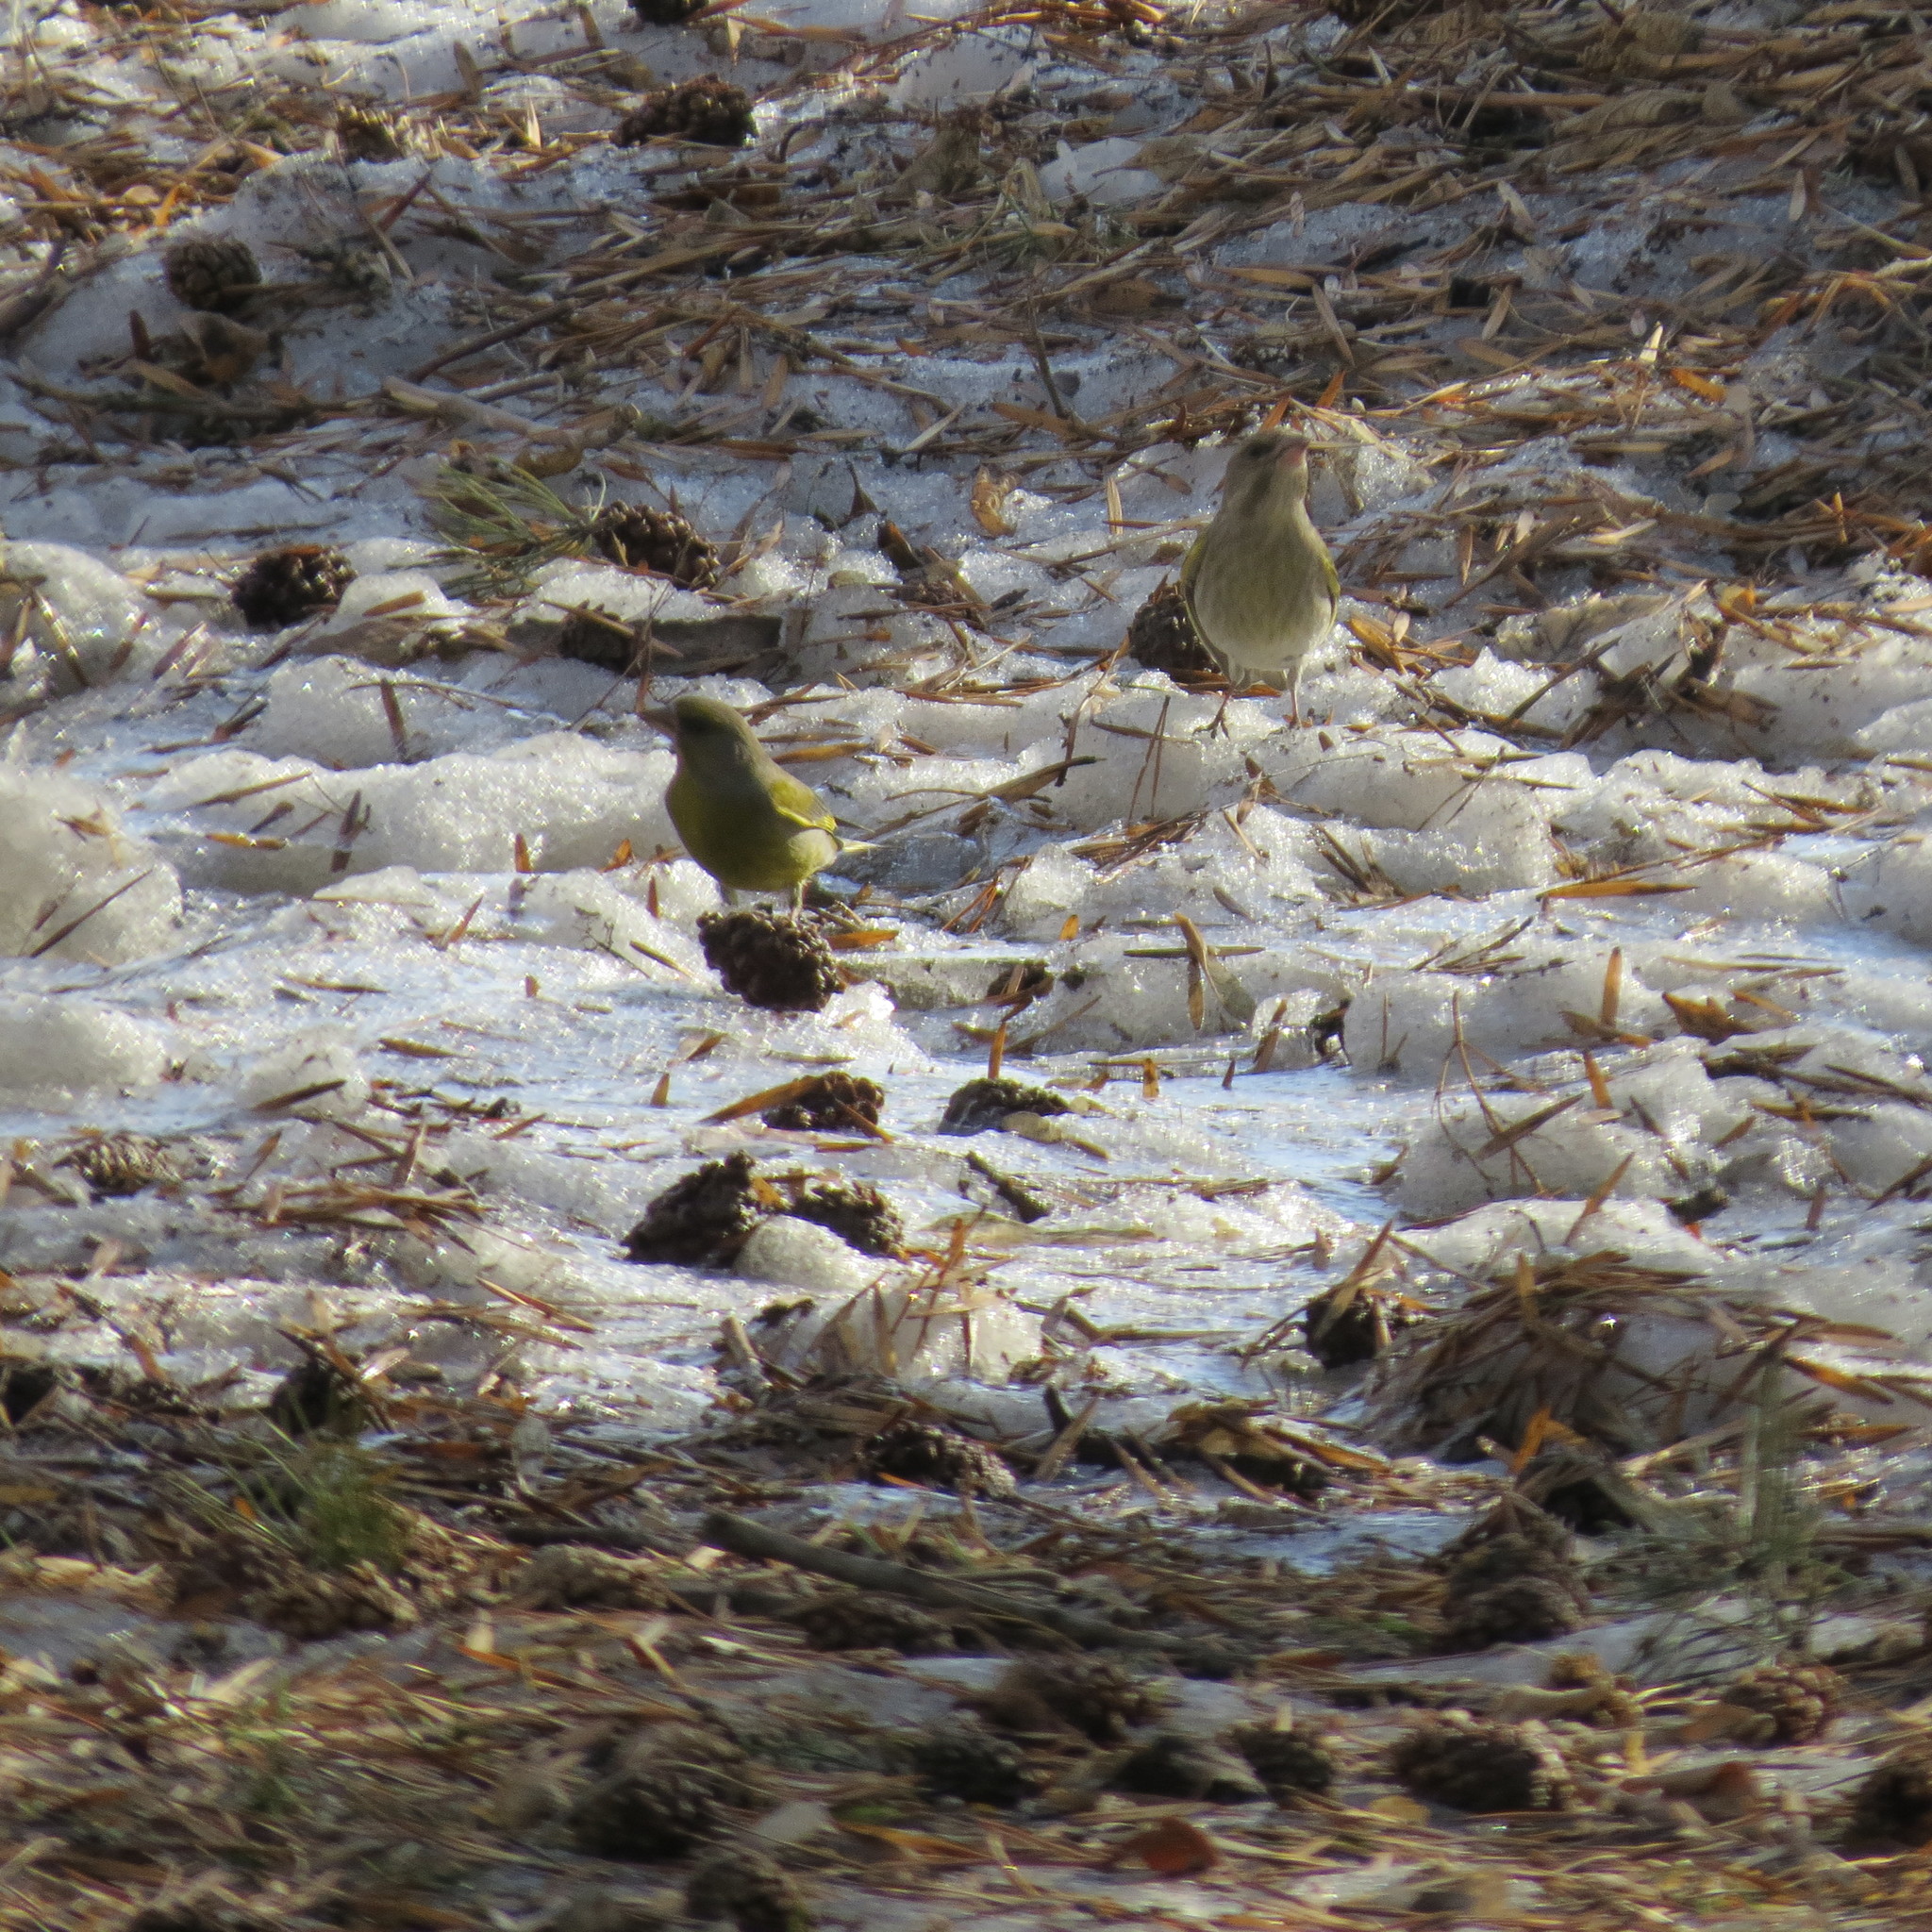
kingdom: Plantae
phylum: Tracheophyta
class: Liliopsida
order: Poales
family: Poaceae
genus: Chloris
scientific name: Chloris chloris
